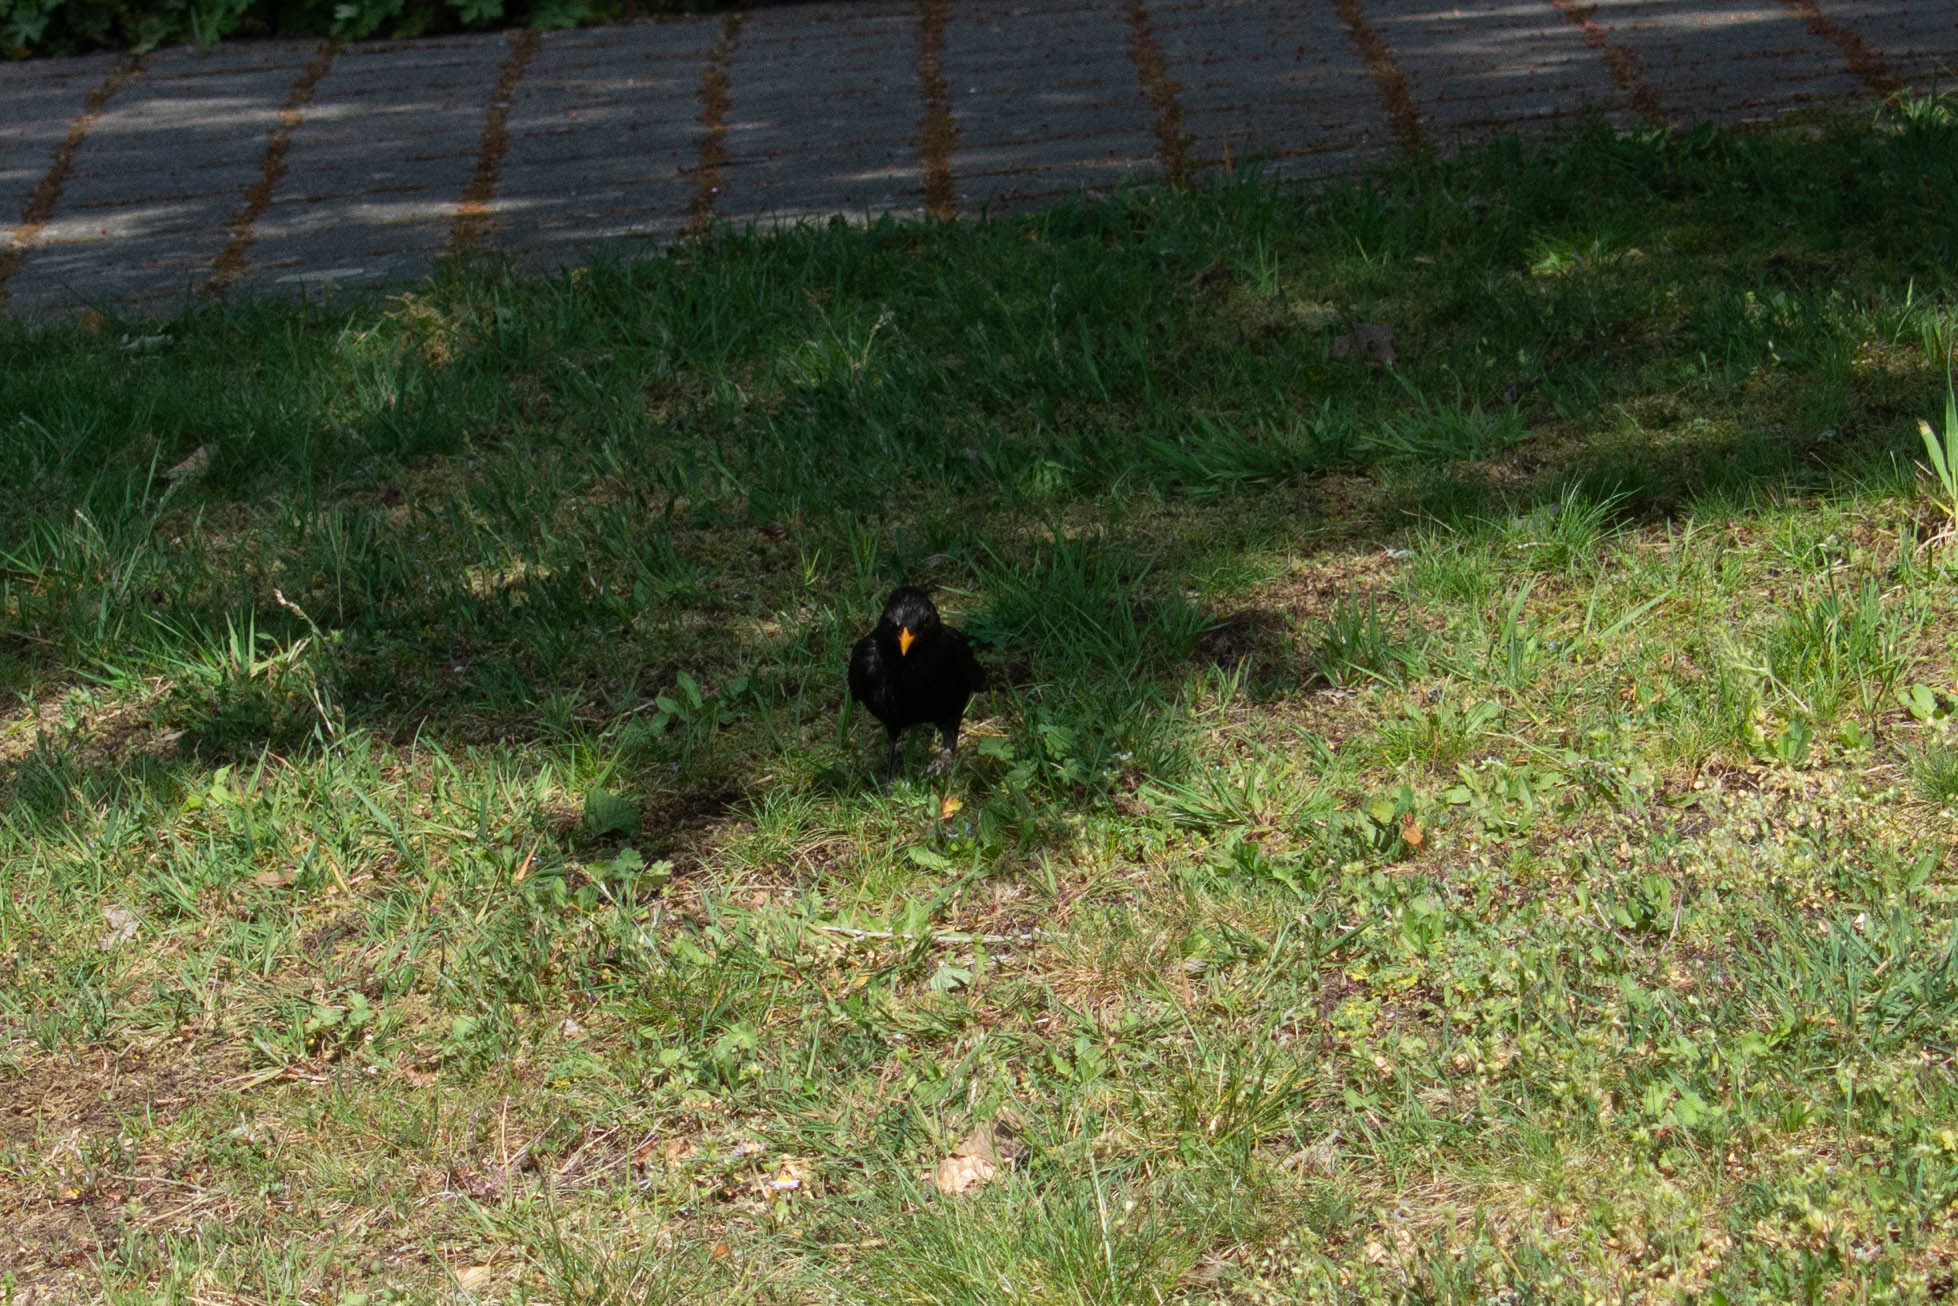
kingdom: Animalia
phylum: Chordata
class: Aves
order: Passeriformes
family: Turdidae
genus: Turdus
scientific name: Turdus merula
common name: Common blackbird
